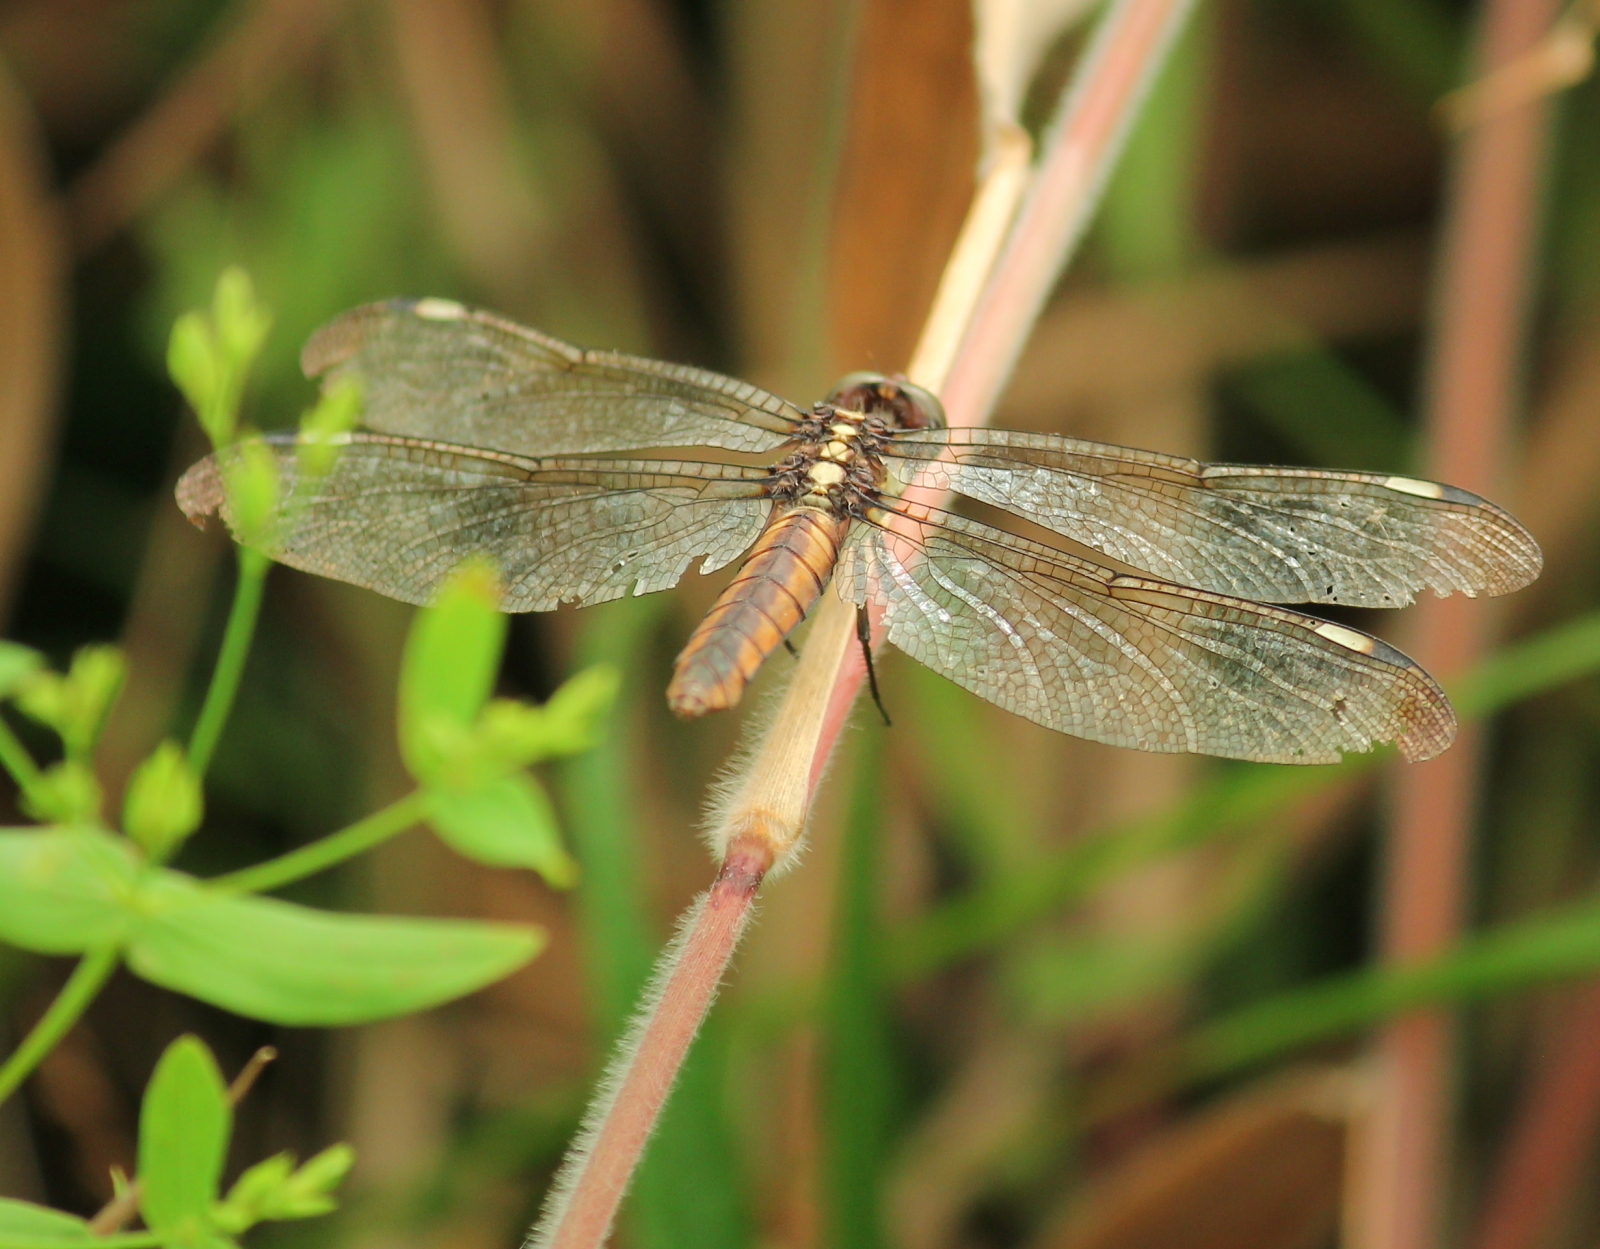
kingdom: Animalia
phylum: Arthropoda
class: Insecta
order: Odonata
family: Libellulidae
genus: Libellula
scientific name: Libellula cyanea
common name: Spangled skimmer
